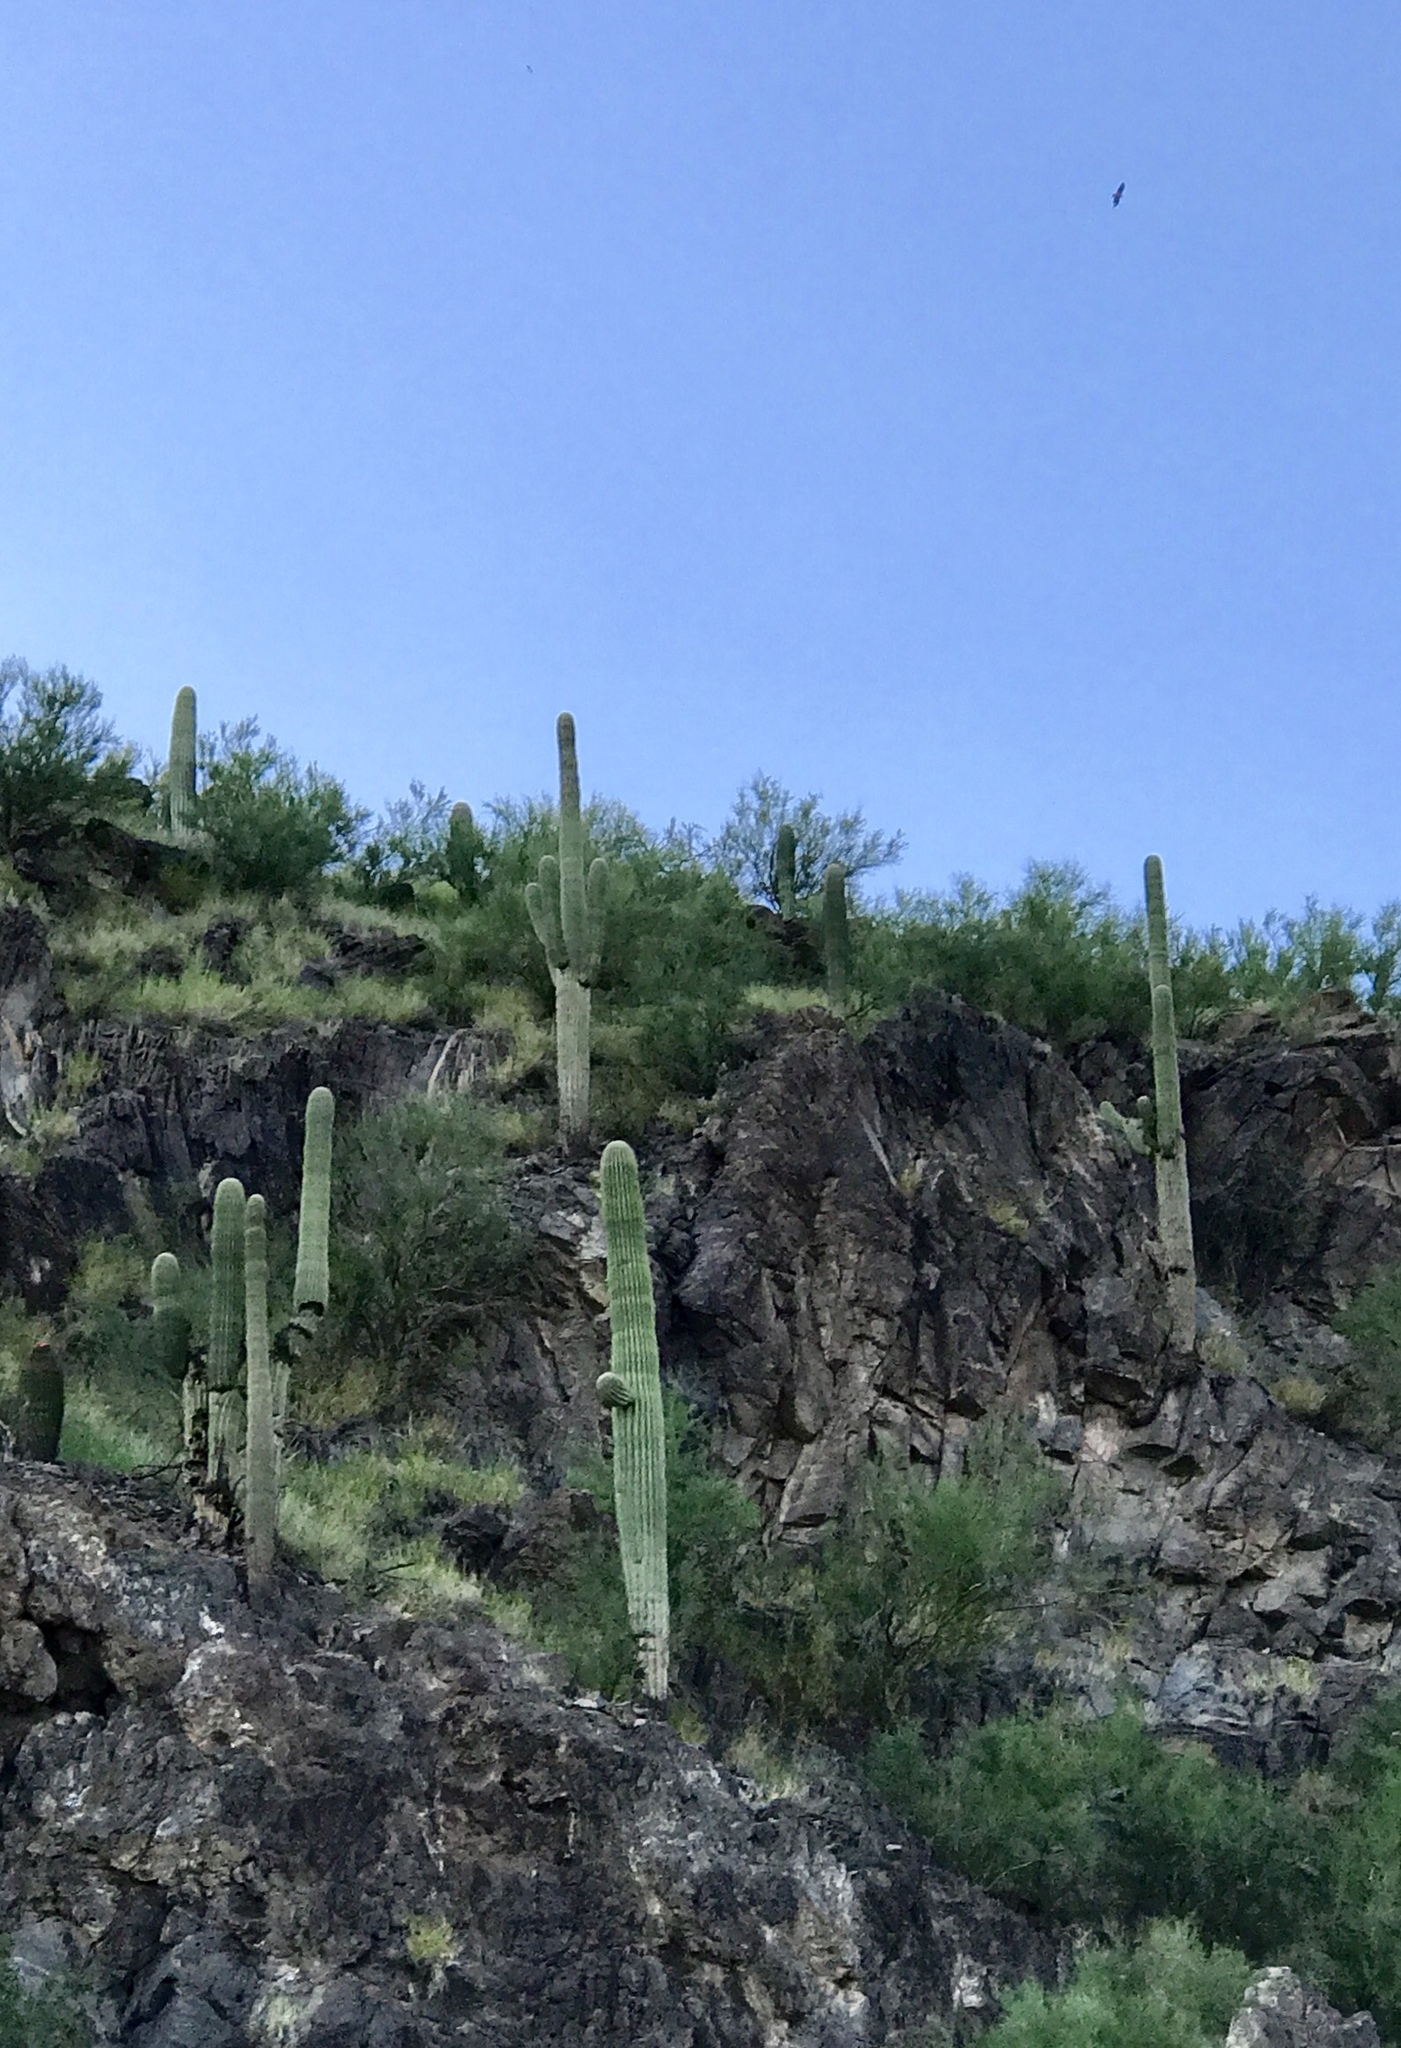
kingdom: Plantae
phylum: Tracheophyta
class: Magnoliopsida
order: Caryophyllales
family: Cactaceae
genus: Carnegiea
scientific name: Carnegiea gigantea
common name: Saguaro
